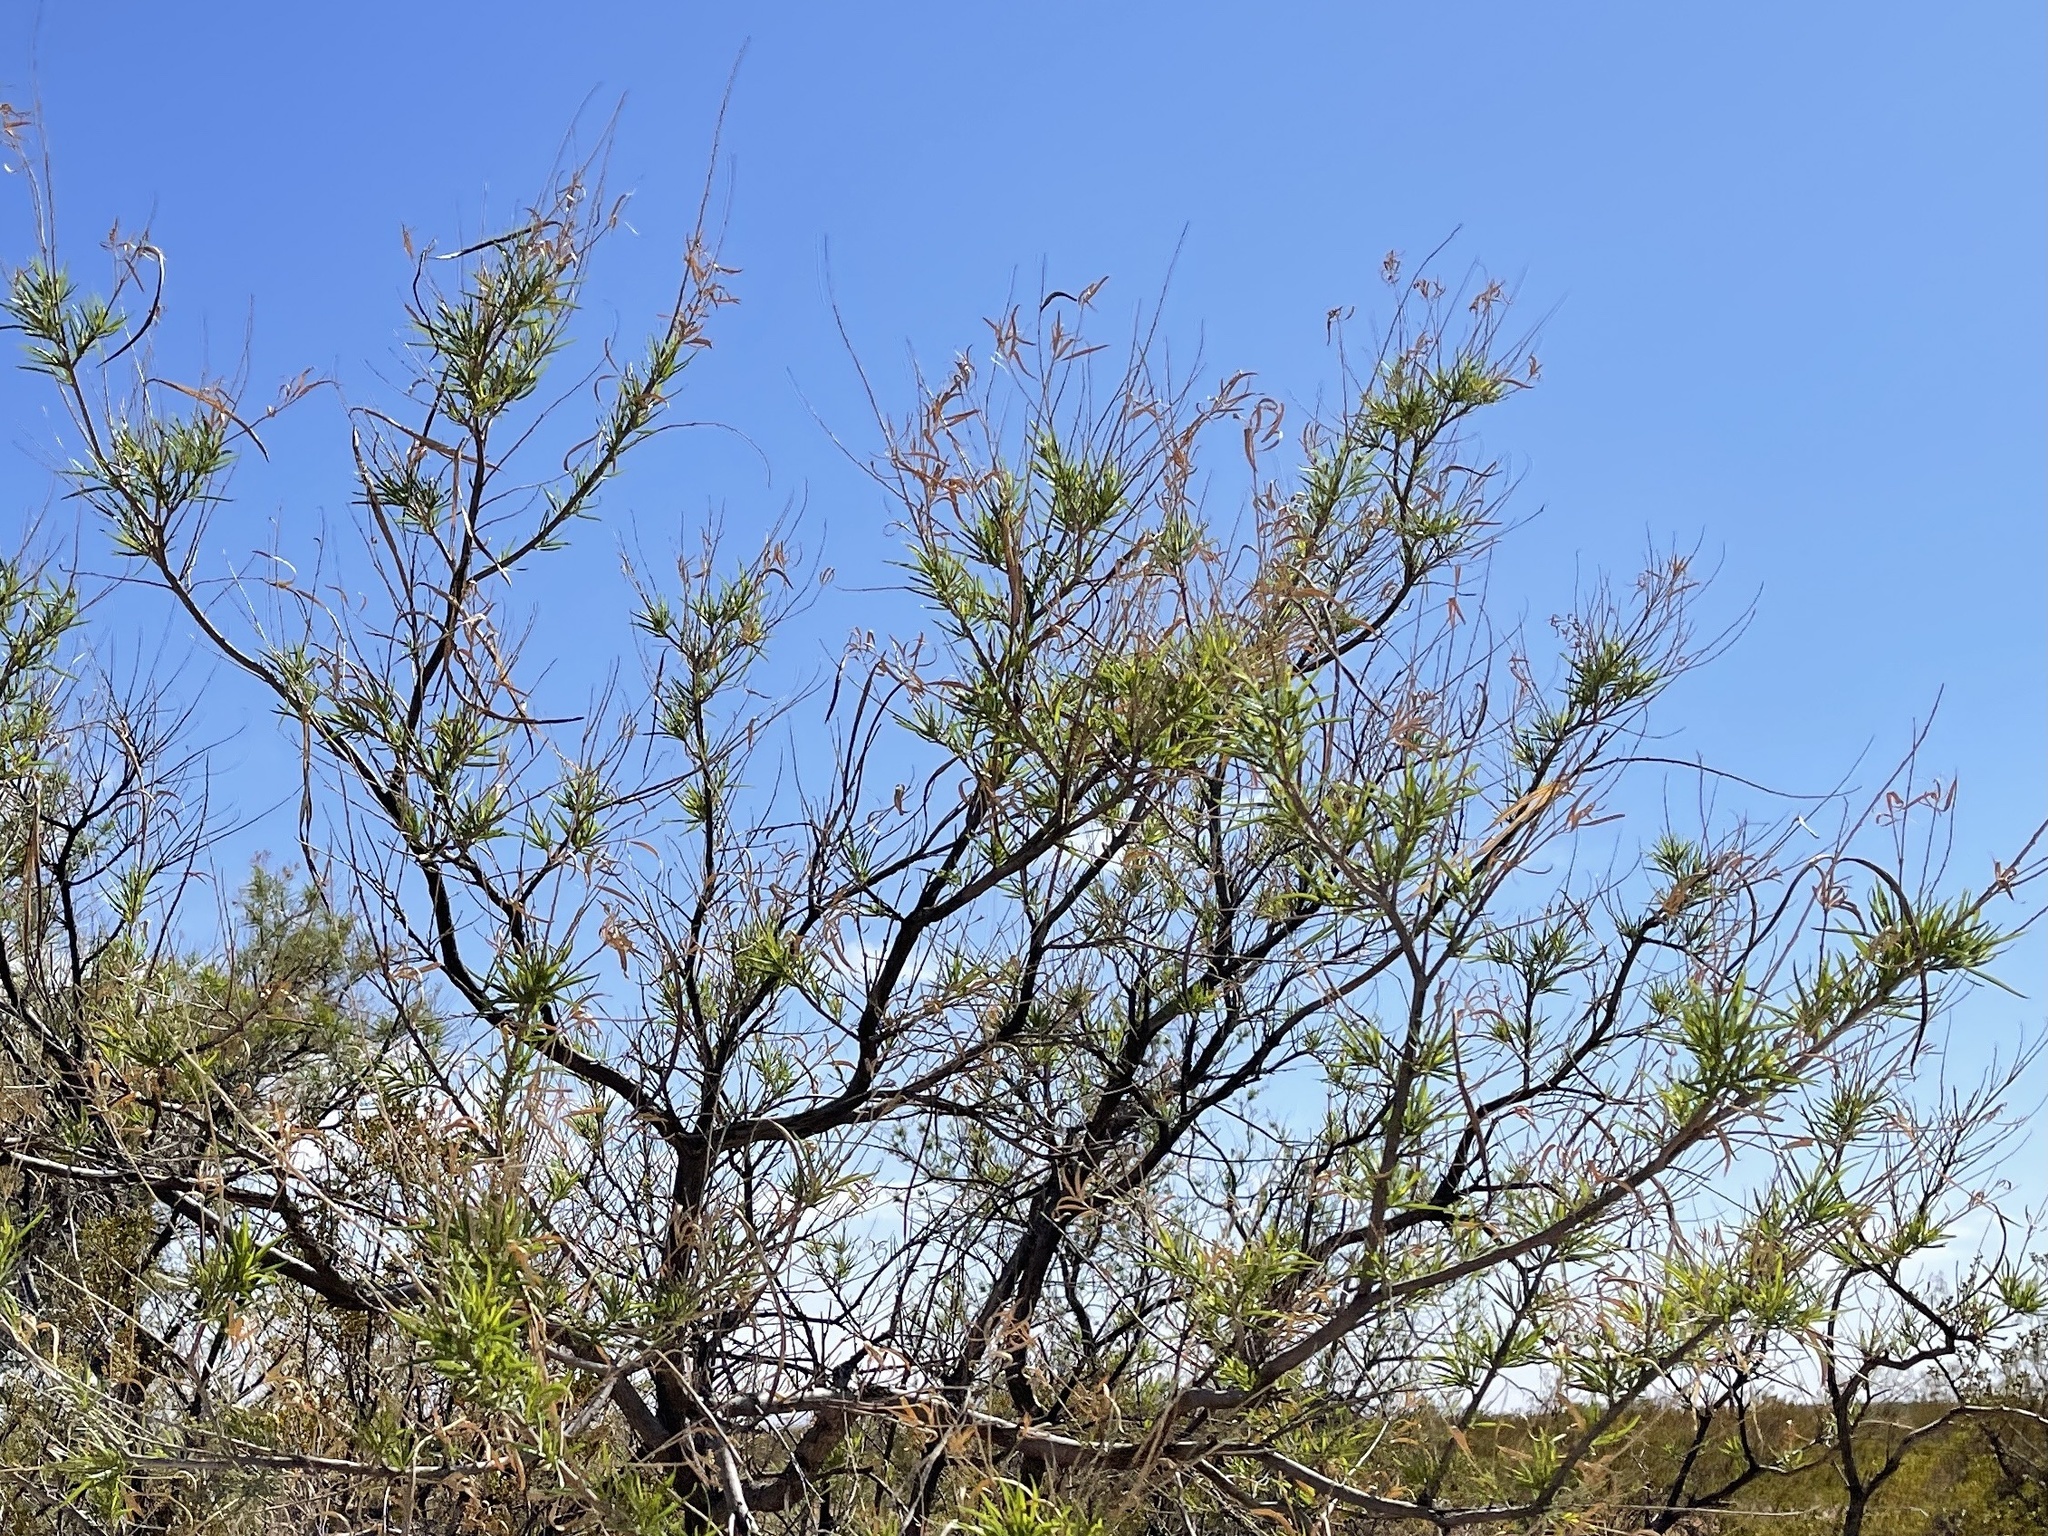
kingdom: Plantae
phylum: Tracheophyta
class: Magnoliopsida
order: Lamiales
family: Bignoniaceae
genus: Chilopsis
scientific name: Chilopsis linearis
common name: Desert-willow
